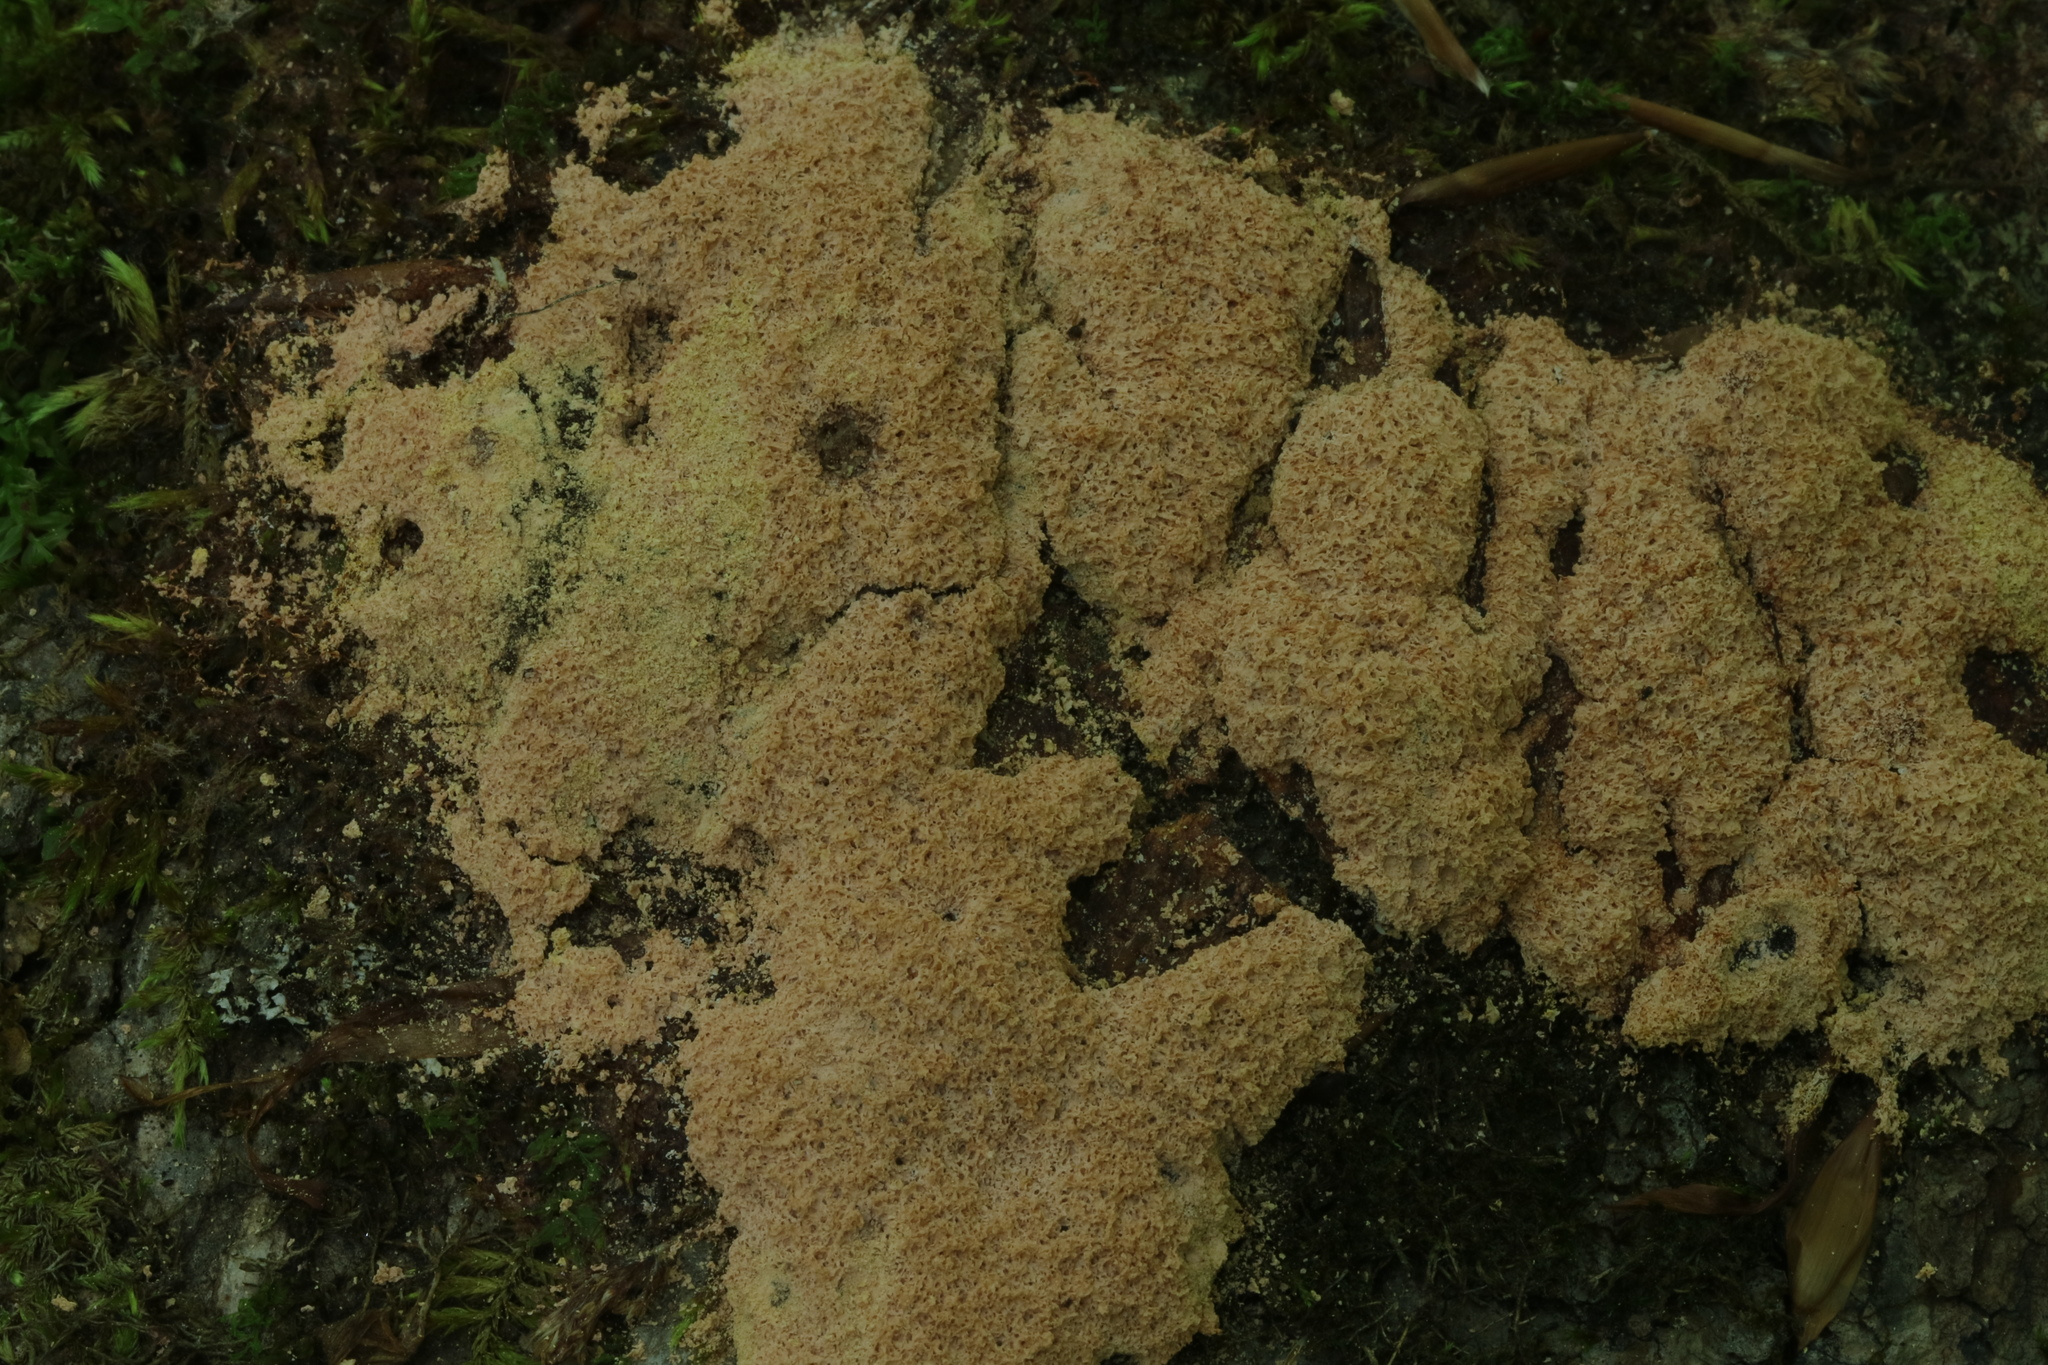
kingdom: Protozoa
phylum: Mycetozoa
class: Myxomycetes
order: Physarales
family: Physaraceae
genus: Fuligo
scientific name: Fuligo septica
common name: Dog vomit slime mold
